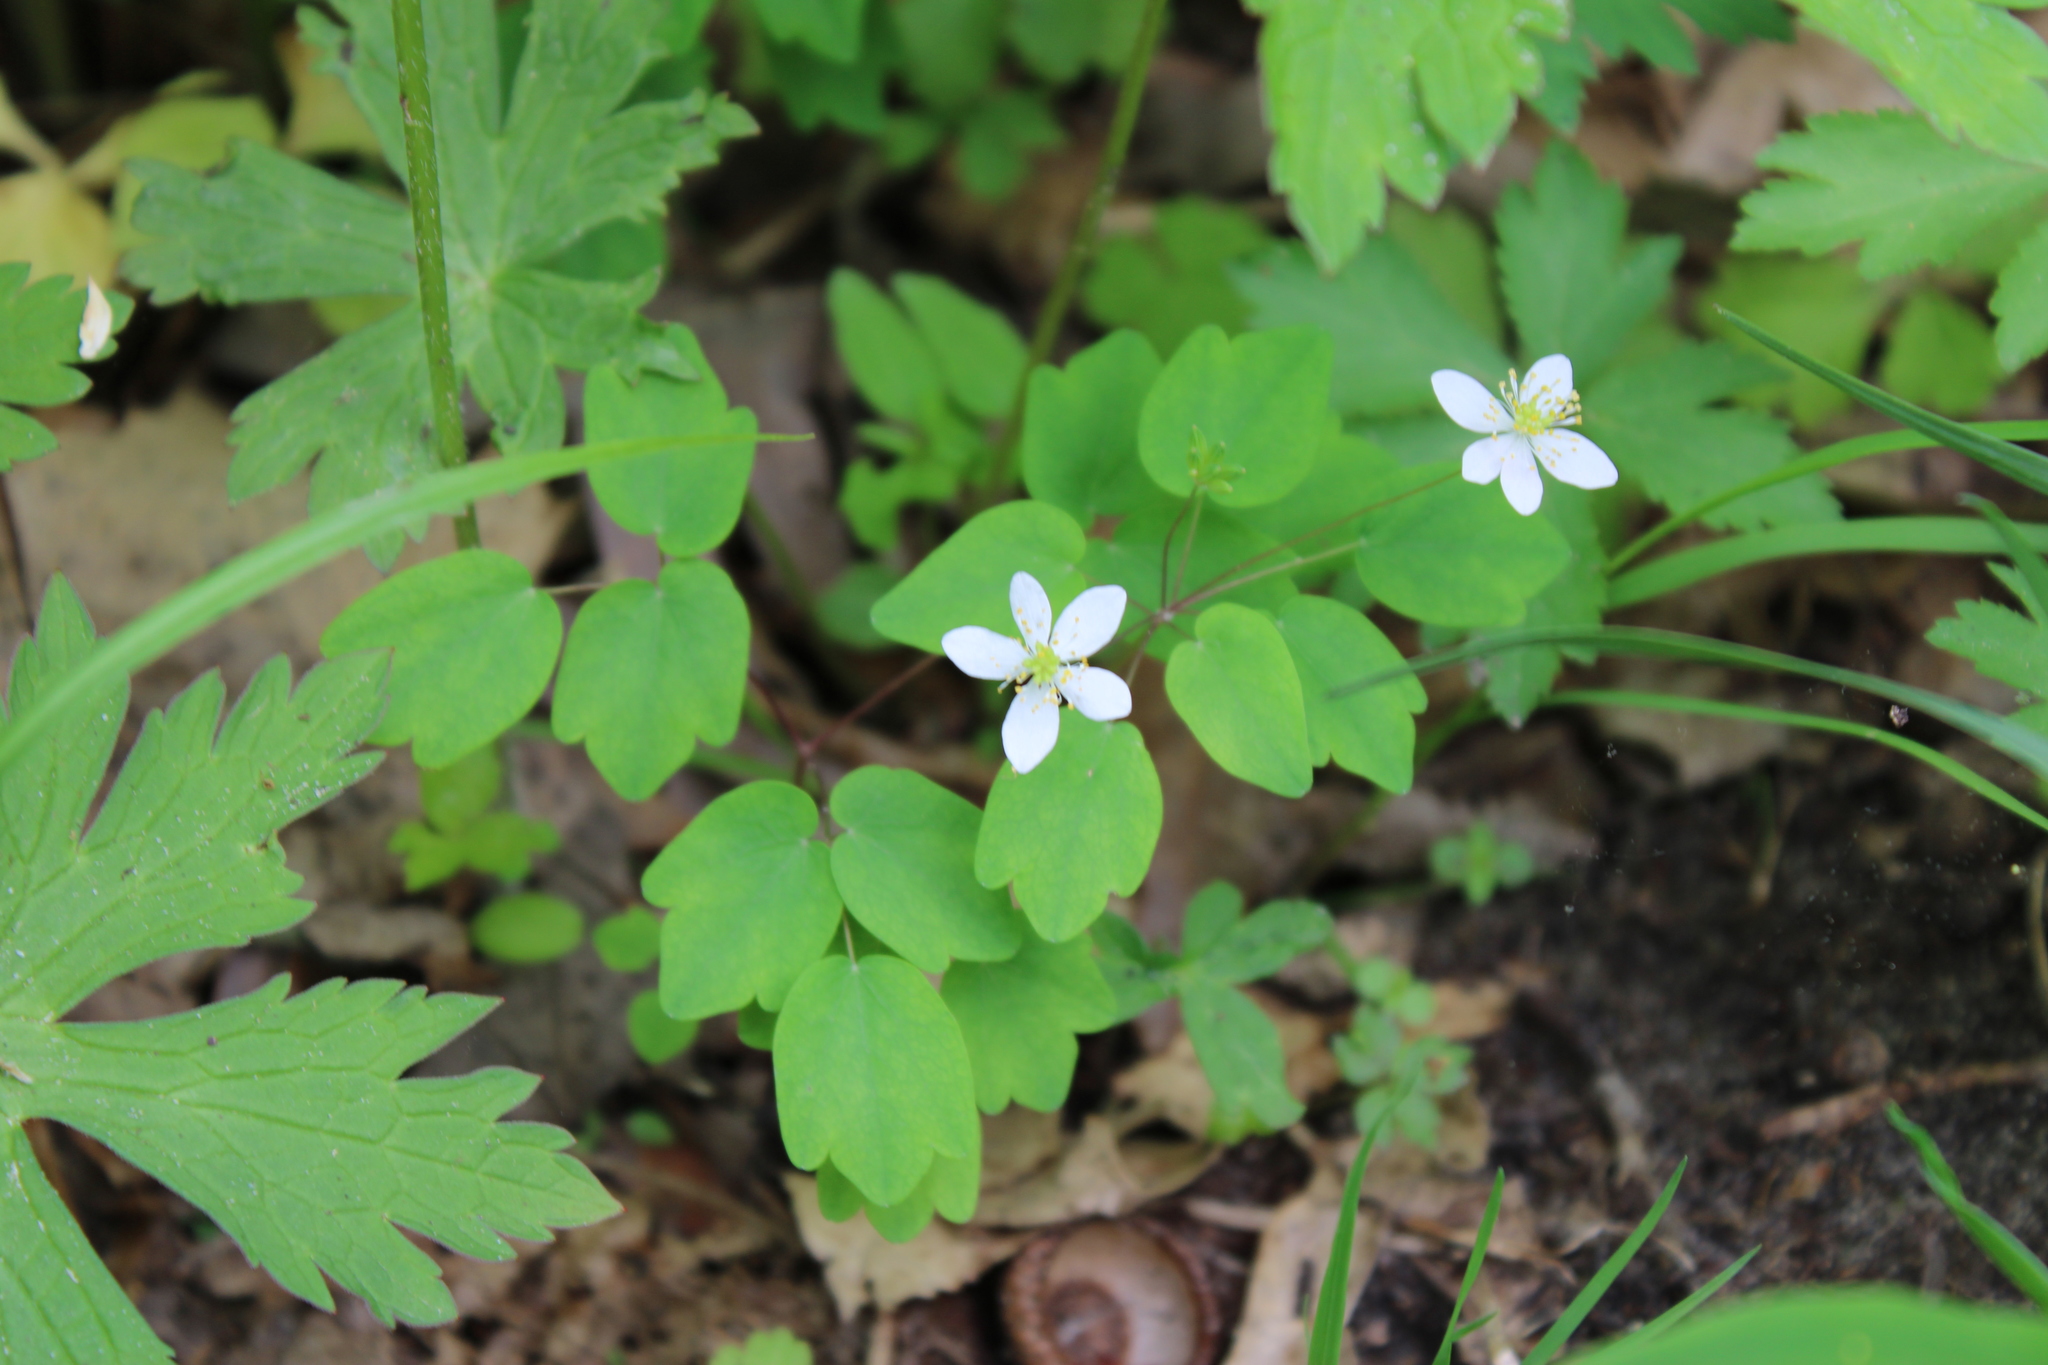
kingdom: Plantae
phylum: Tracheophyta
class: Magnoliopsida
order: Ranunculales
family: Ranunculaceae
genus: Thalictrum
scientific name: Thalictrum thalictroides
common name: Rue-anemone
